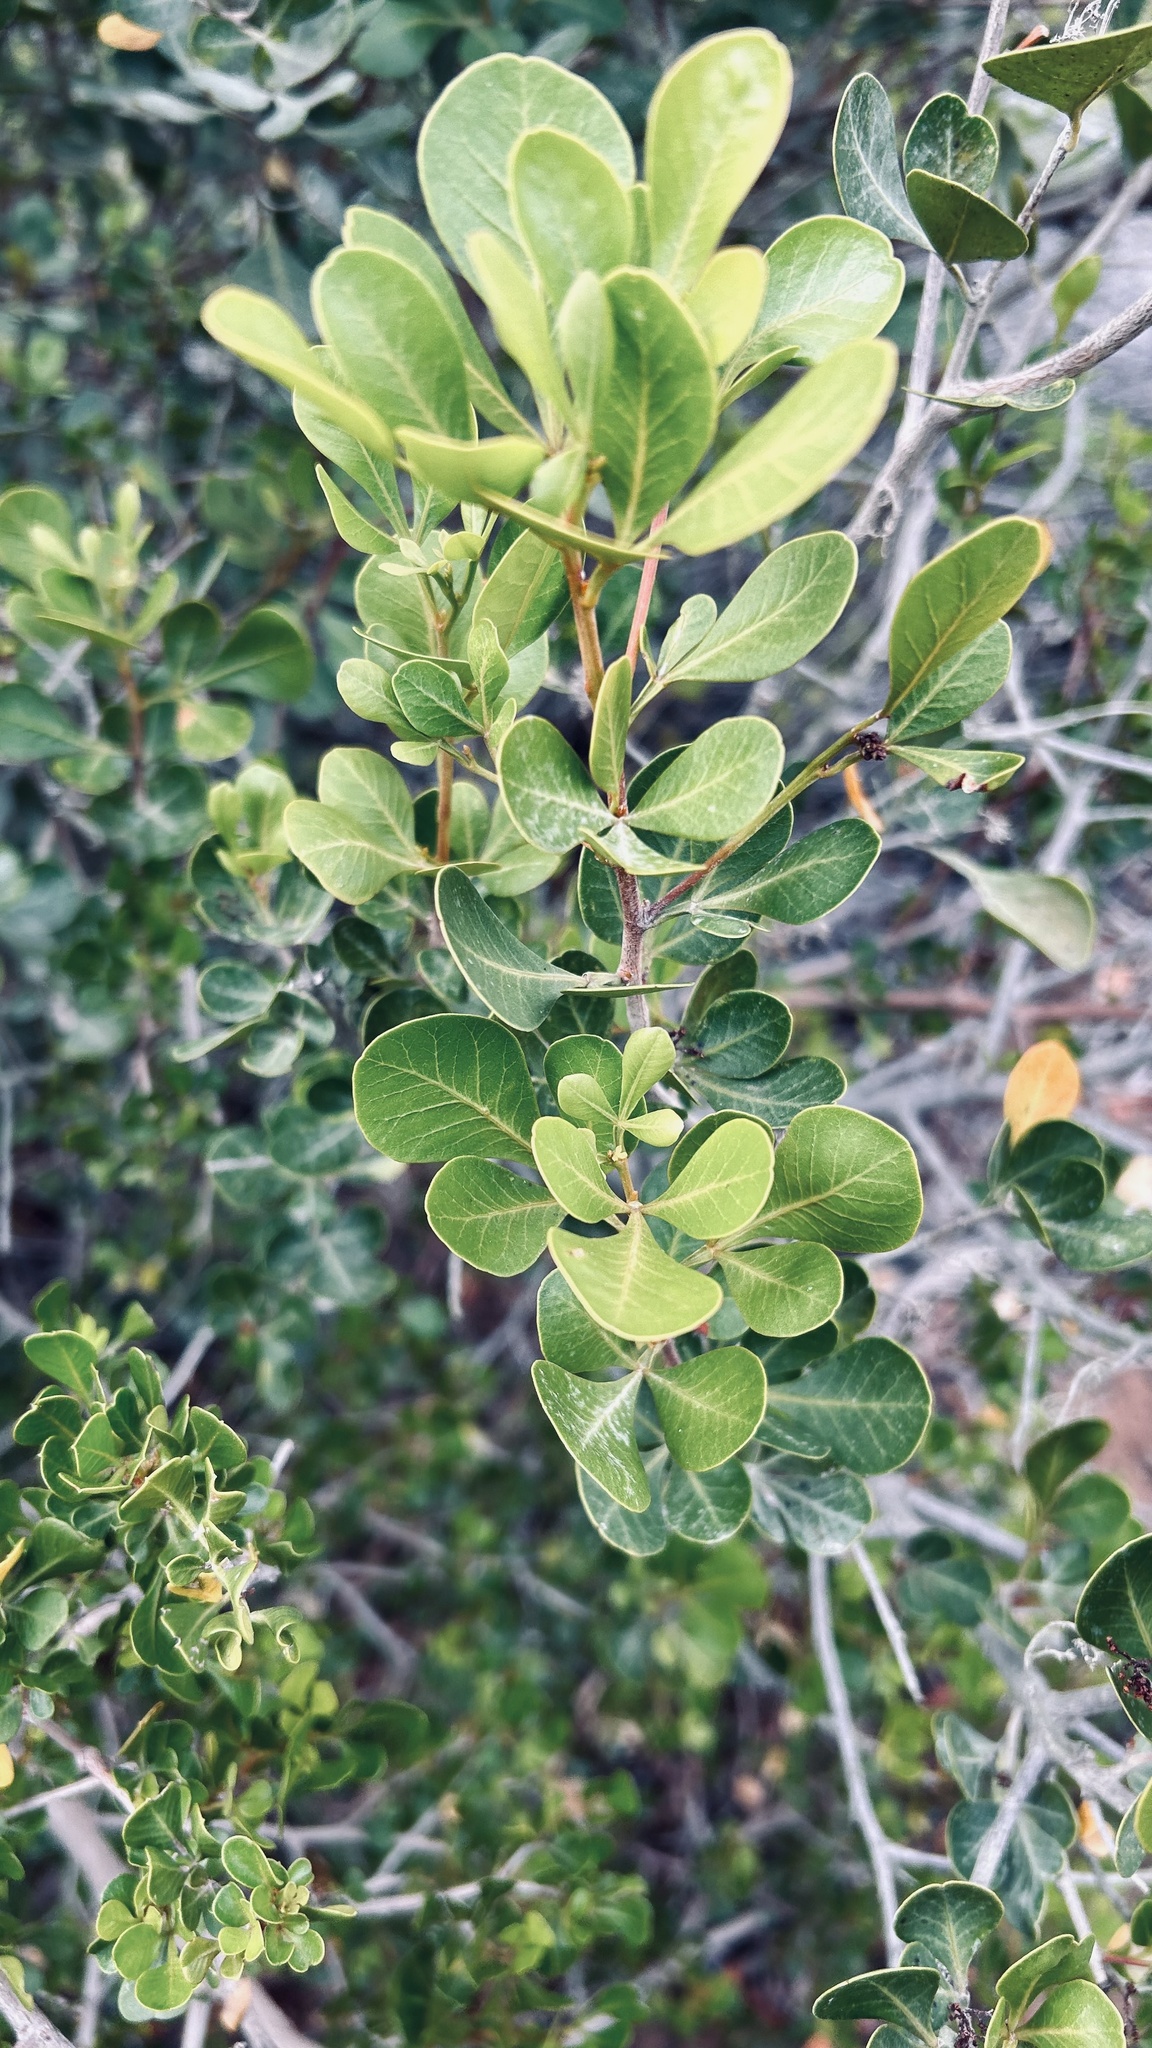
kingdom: Plantae
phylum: Tracheophyta
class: Magnoliopsida
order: Sapindales
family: Anacardiaceae
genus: Searsia
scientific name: Searsia lucida
